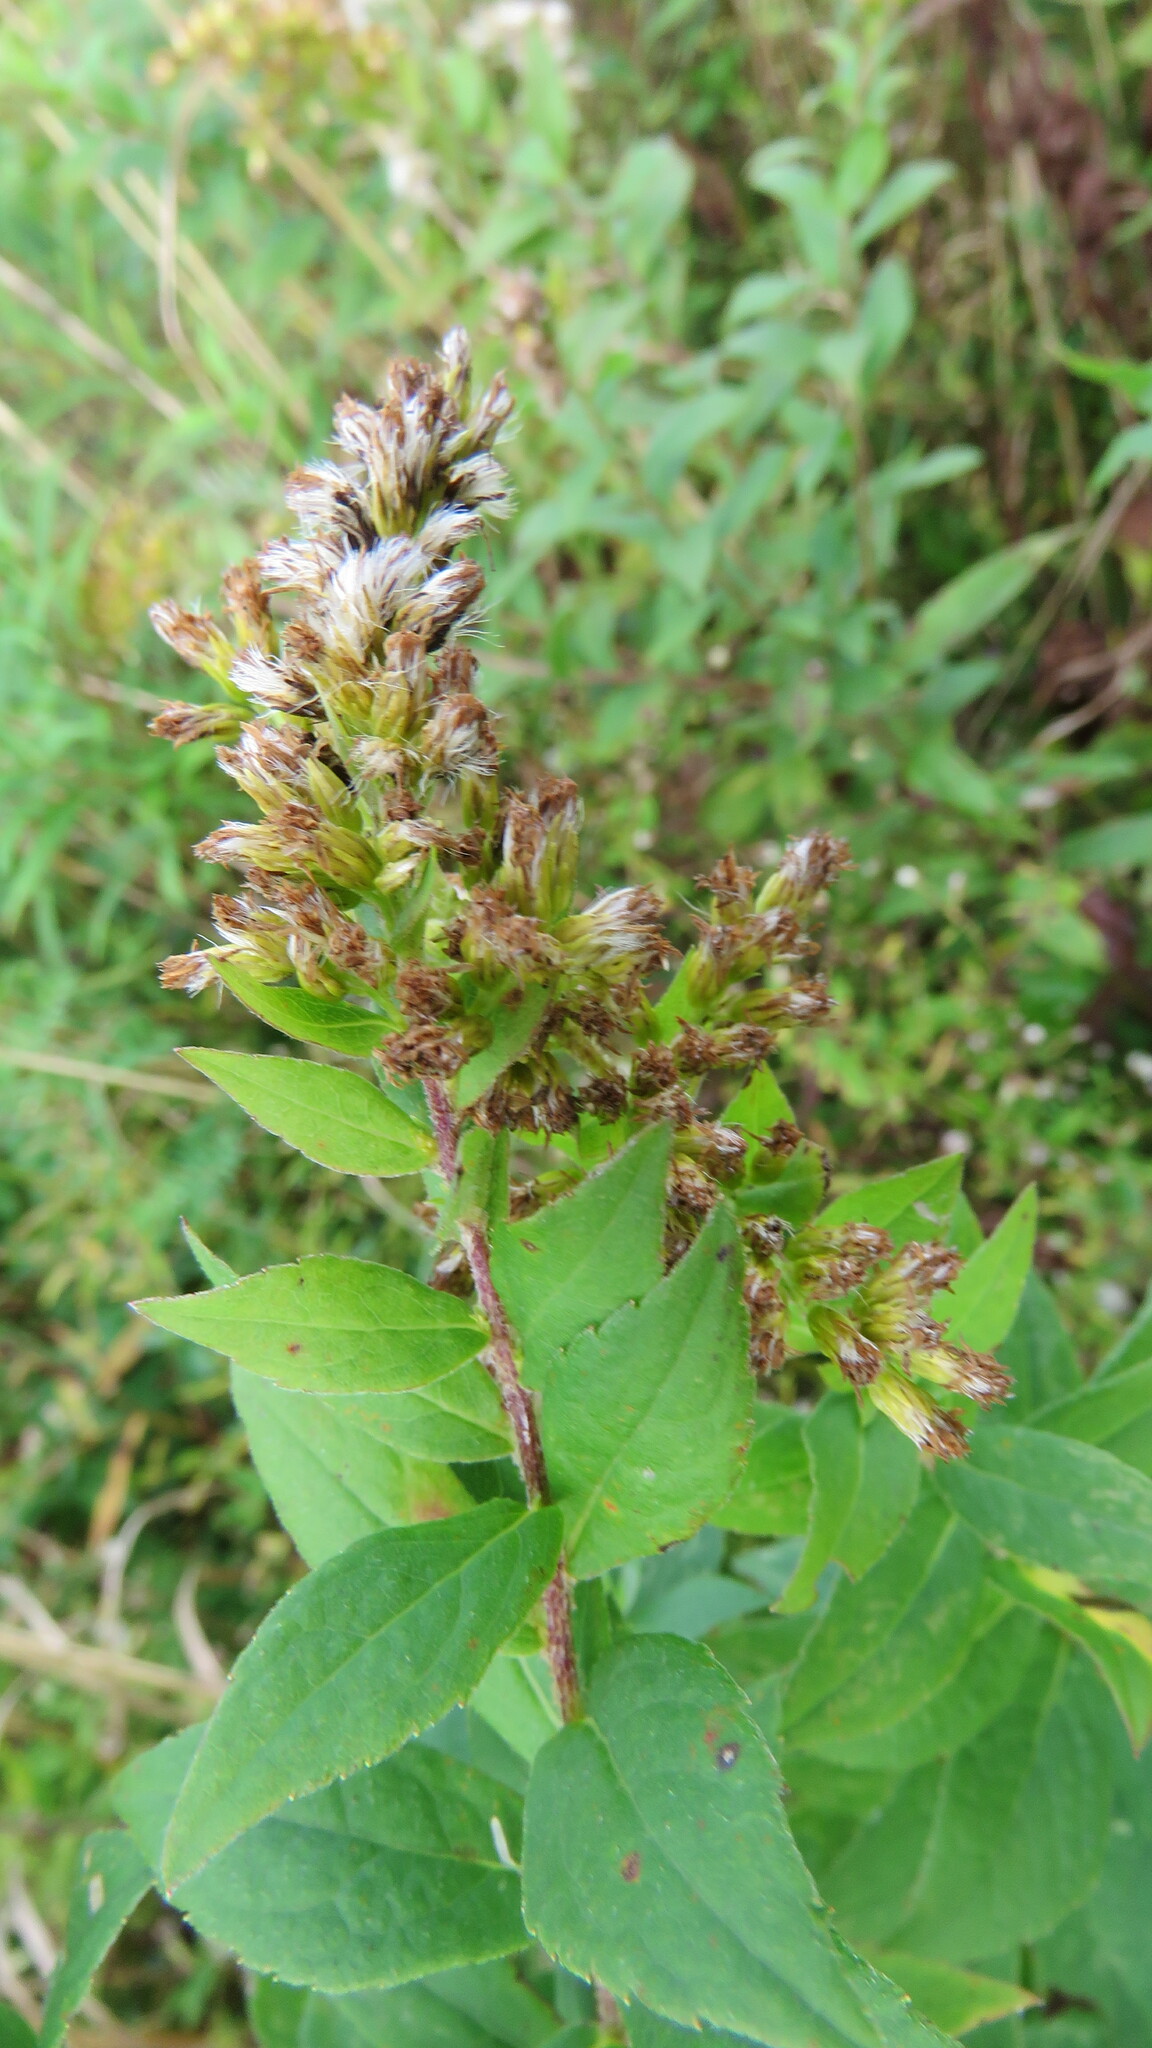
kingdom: Plantae
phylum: Tracheophyta
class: Magnoliopsida
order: Rosales
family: Rosaceae
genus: Spiraea
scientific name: Spiraea alba
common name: Pale bridewort
